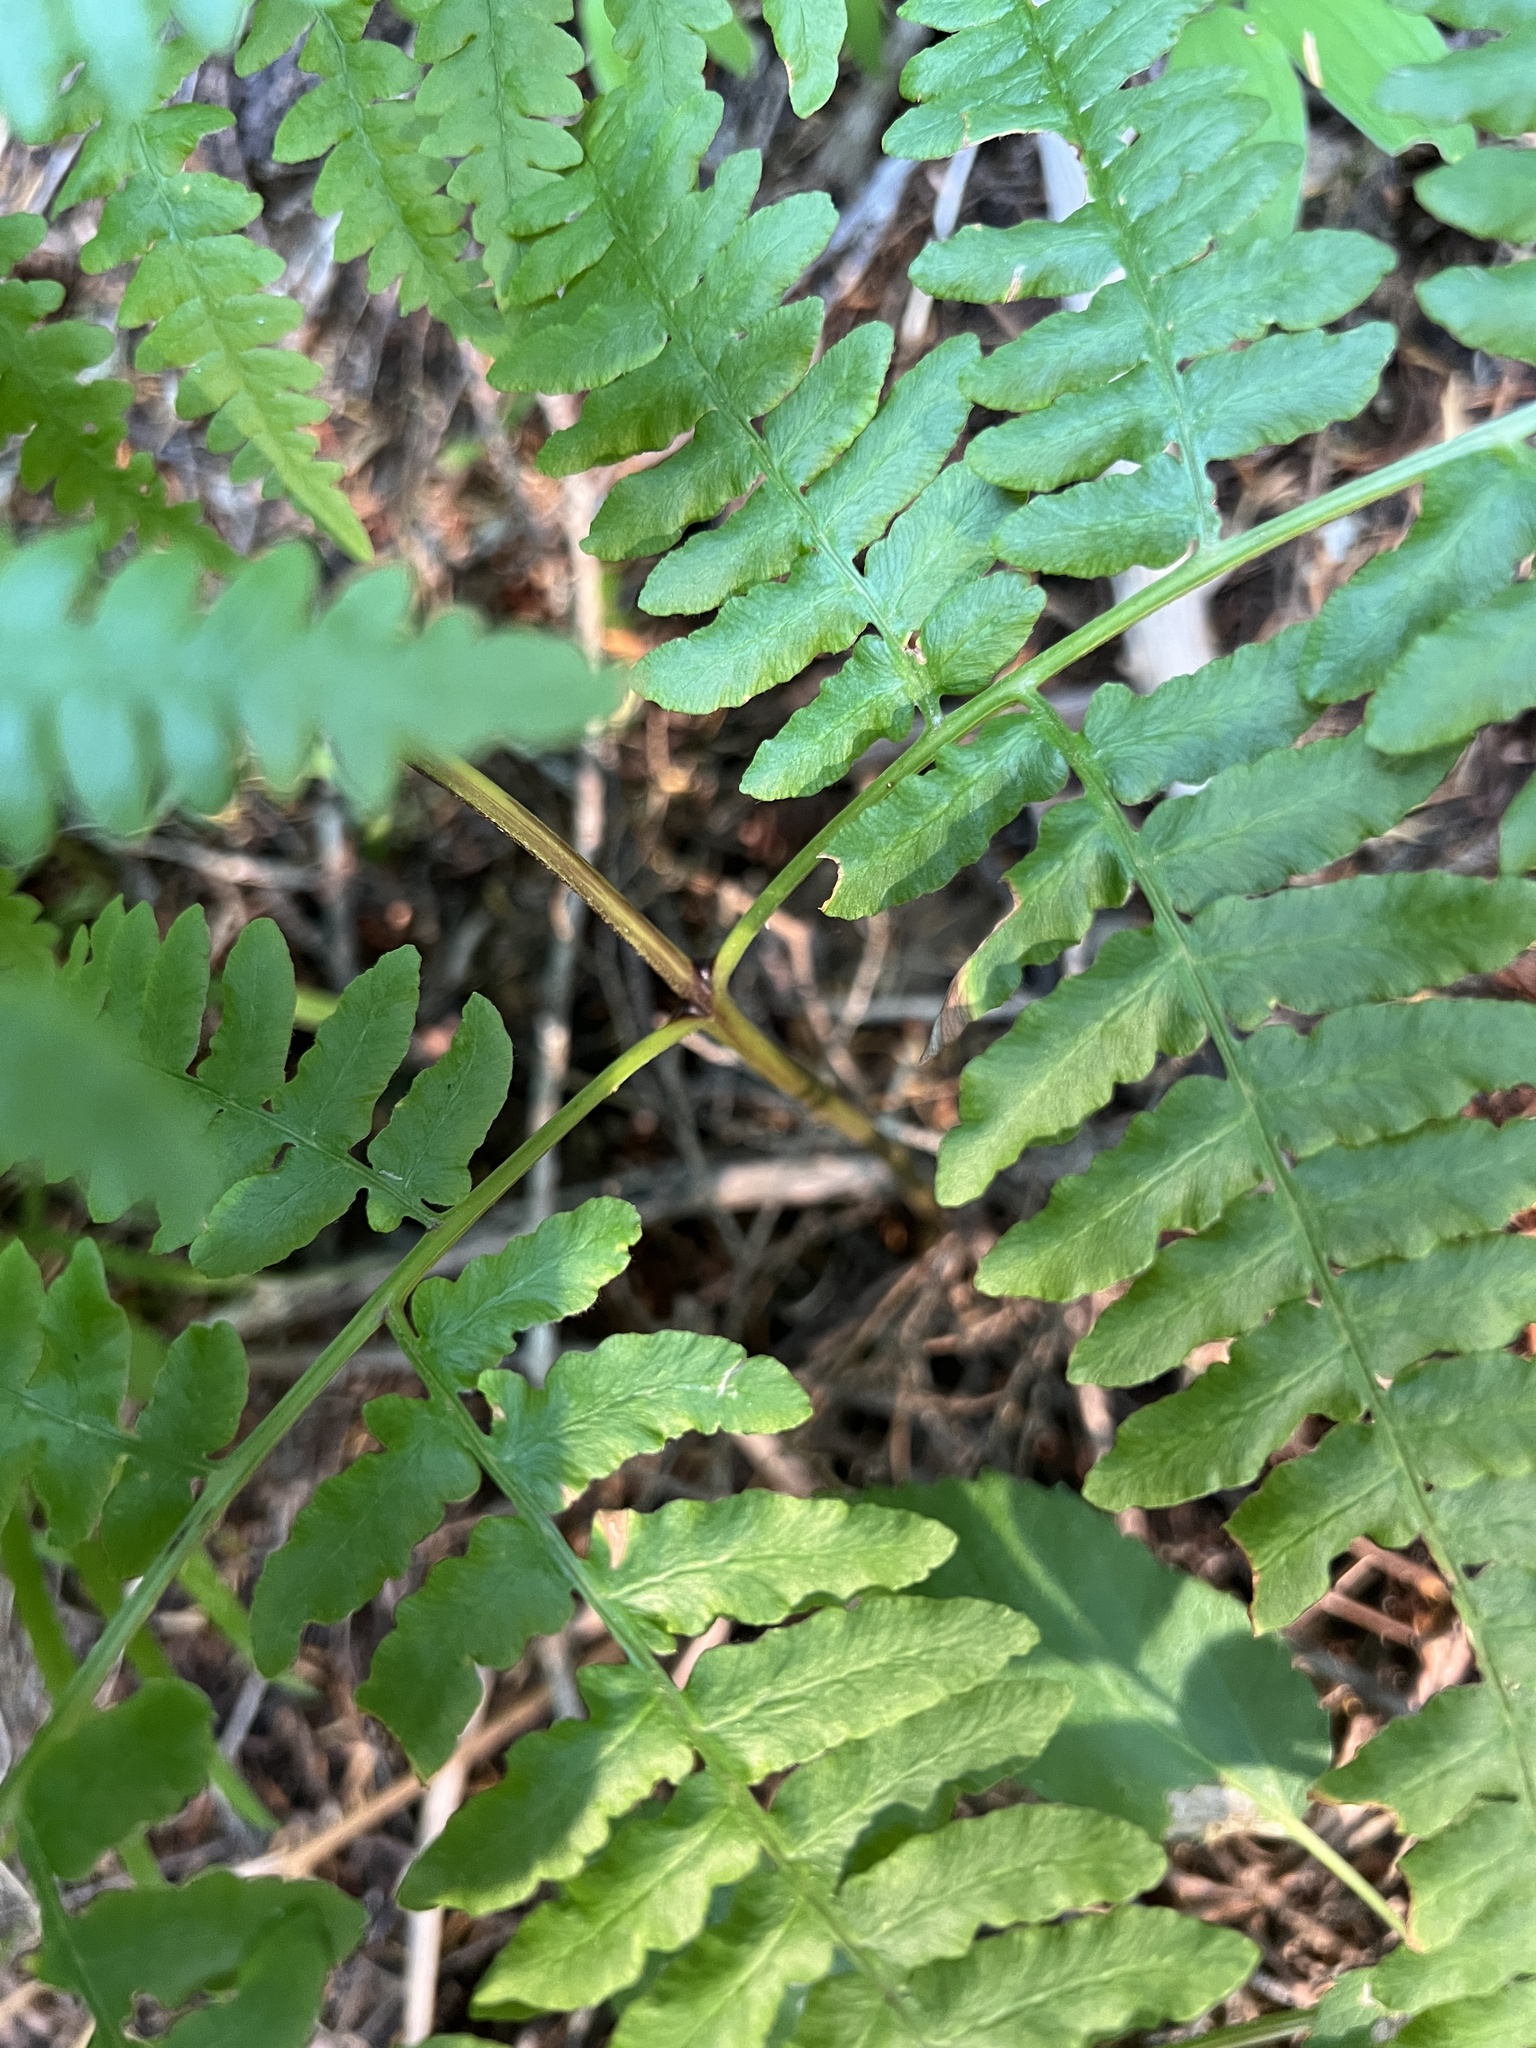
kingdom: Plantae
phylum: Tracheophyta
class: Polypodiopsida
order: Polypodiales
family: Dennstaedtiaceae
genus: Pteridium
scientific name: Pteridium aquilinum
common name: Bracken
